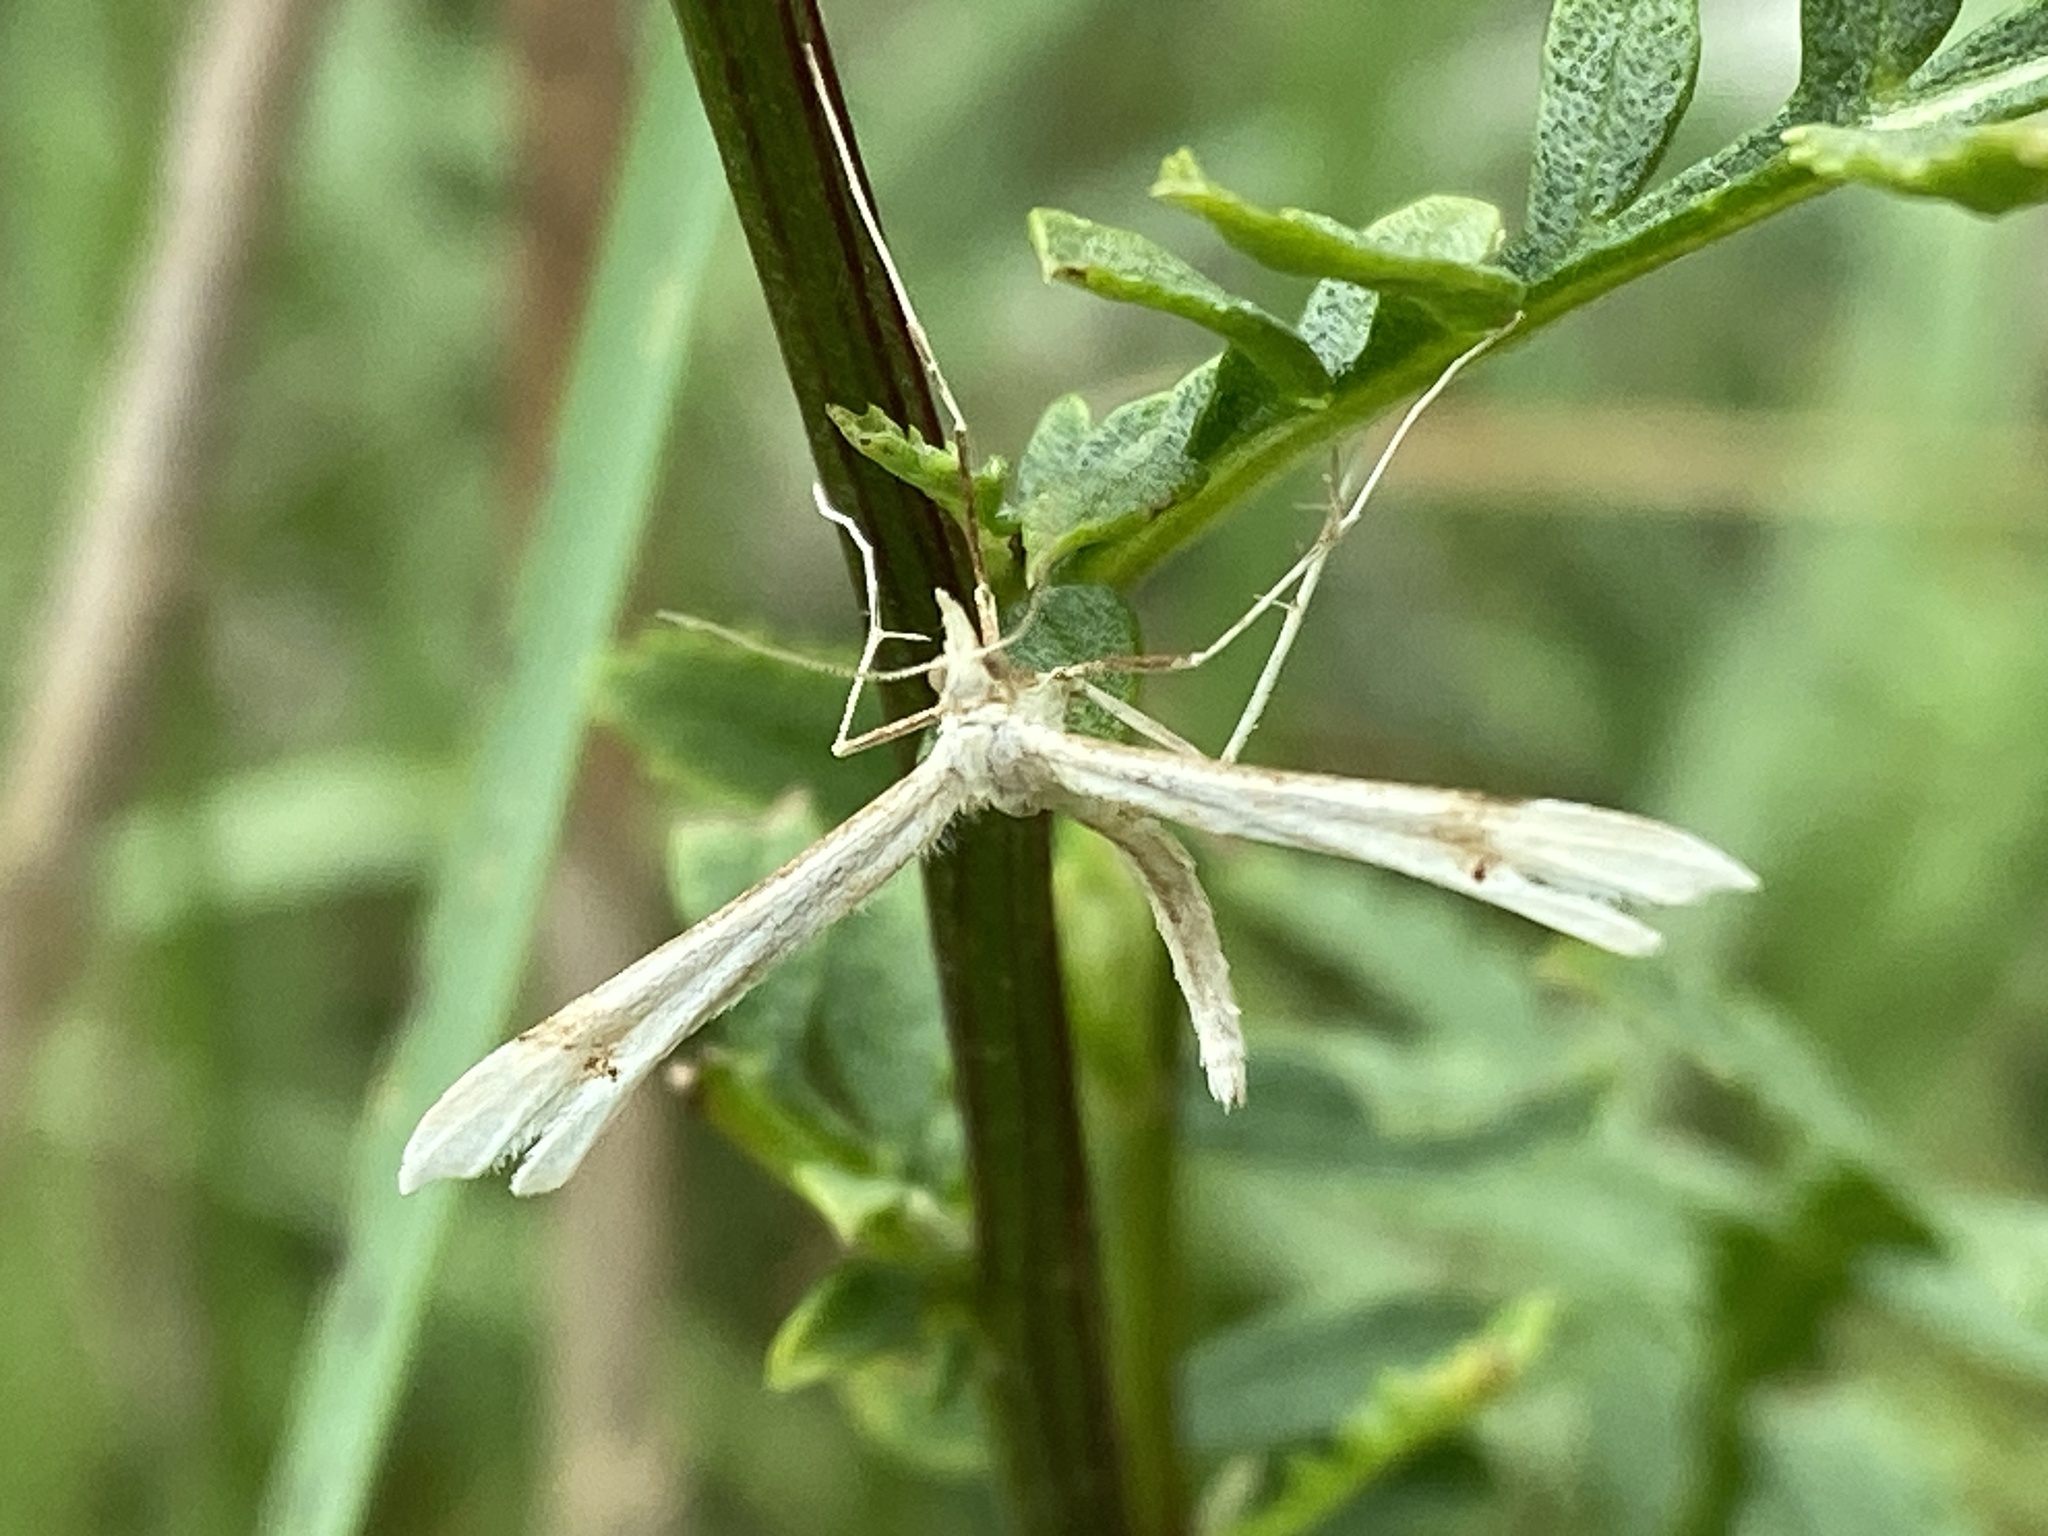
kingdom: Animalia
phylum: Arthropoda
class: Insecta
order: Lepidoptera
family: Pterophoridae
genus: Gillmeria
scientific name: Gillmeria pallidactyla
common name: Yarrow plume
